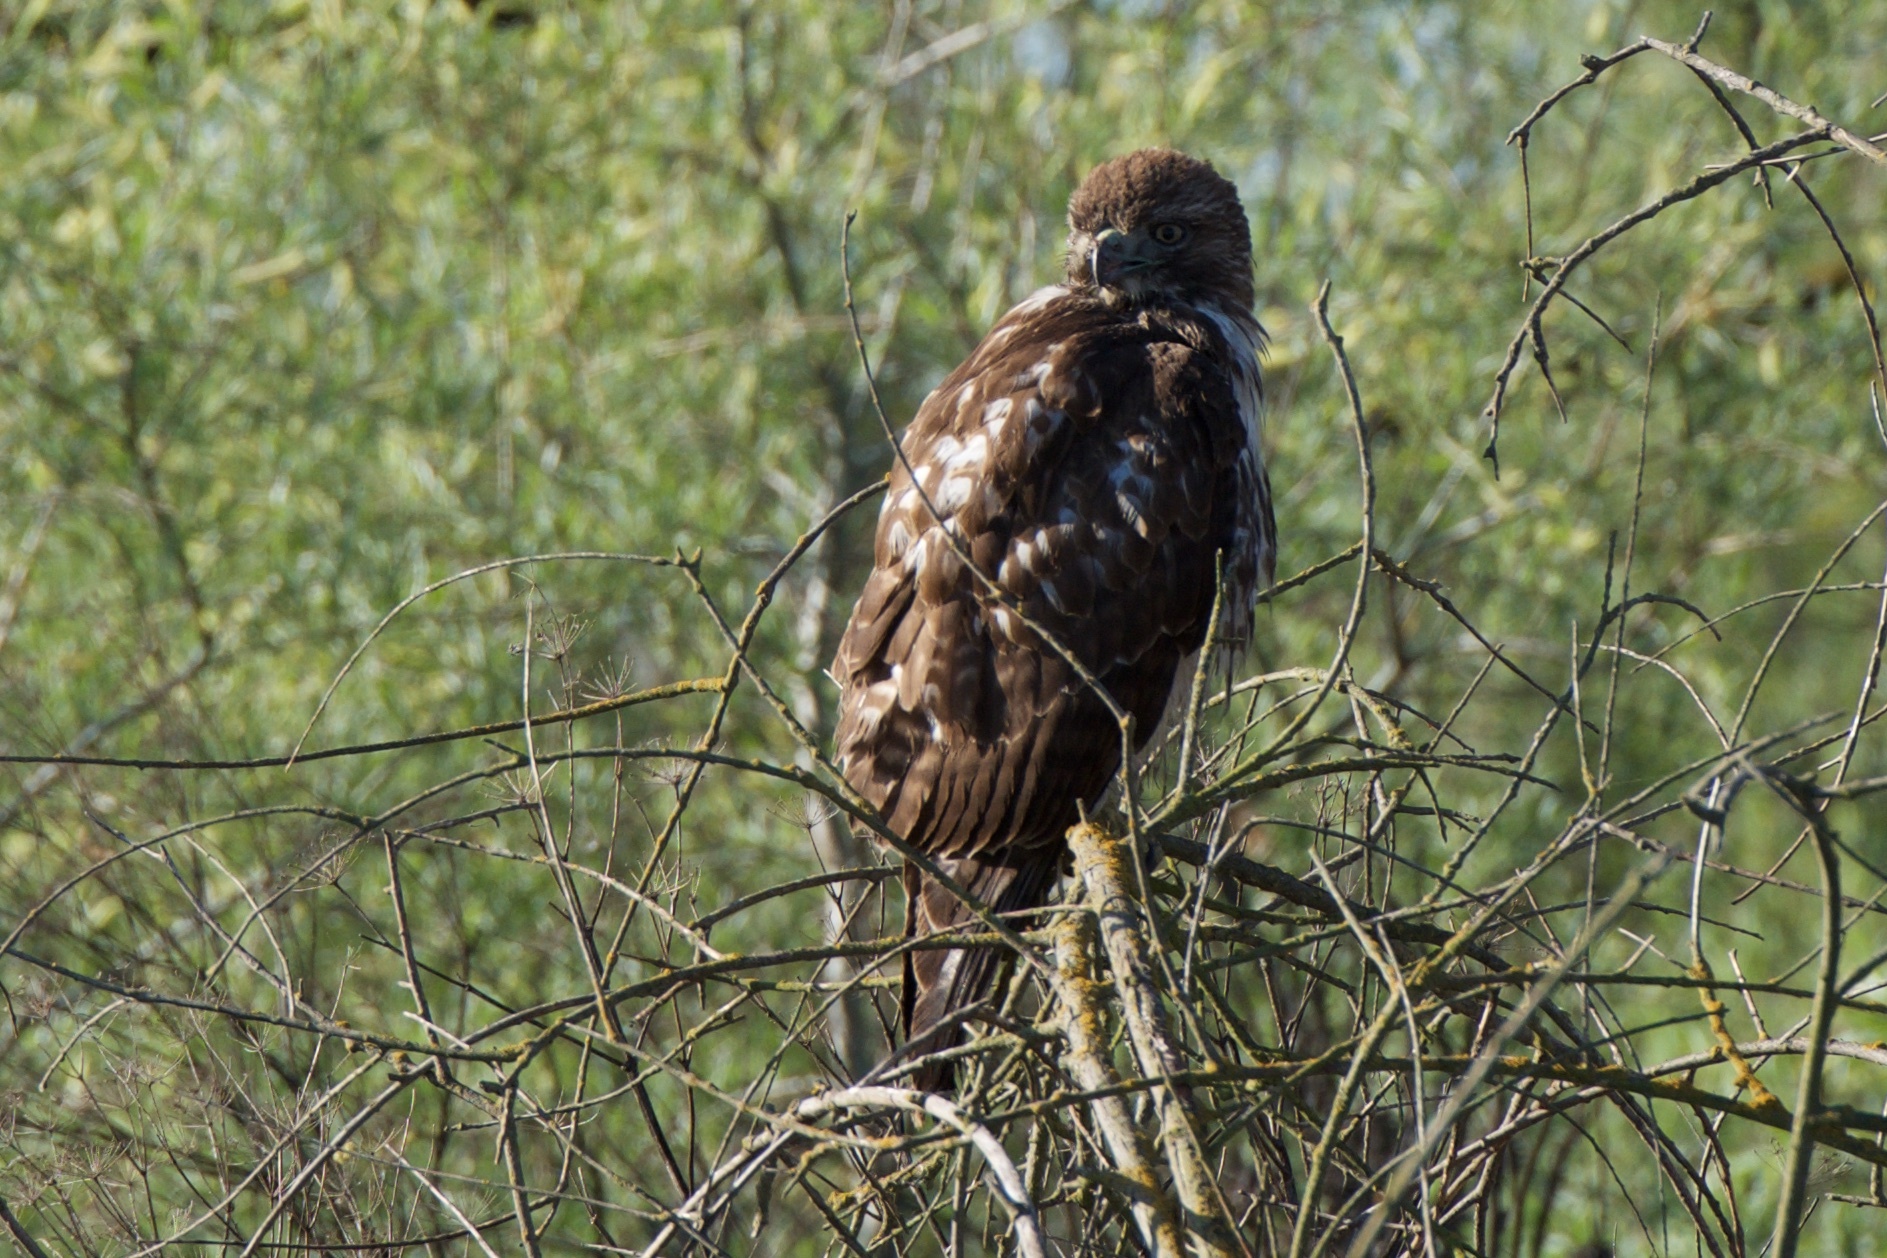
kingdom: Animalia
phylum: Chordata
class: Aves
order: Accipitriformes
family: Accipitridae
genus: Buteo
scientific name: Buteo jamaicensis
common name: Red-tailed hawk
